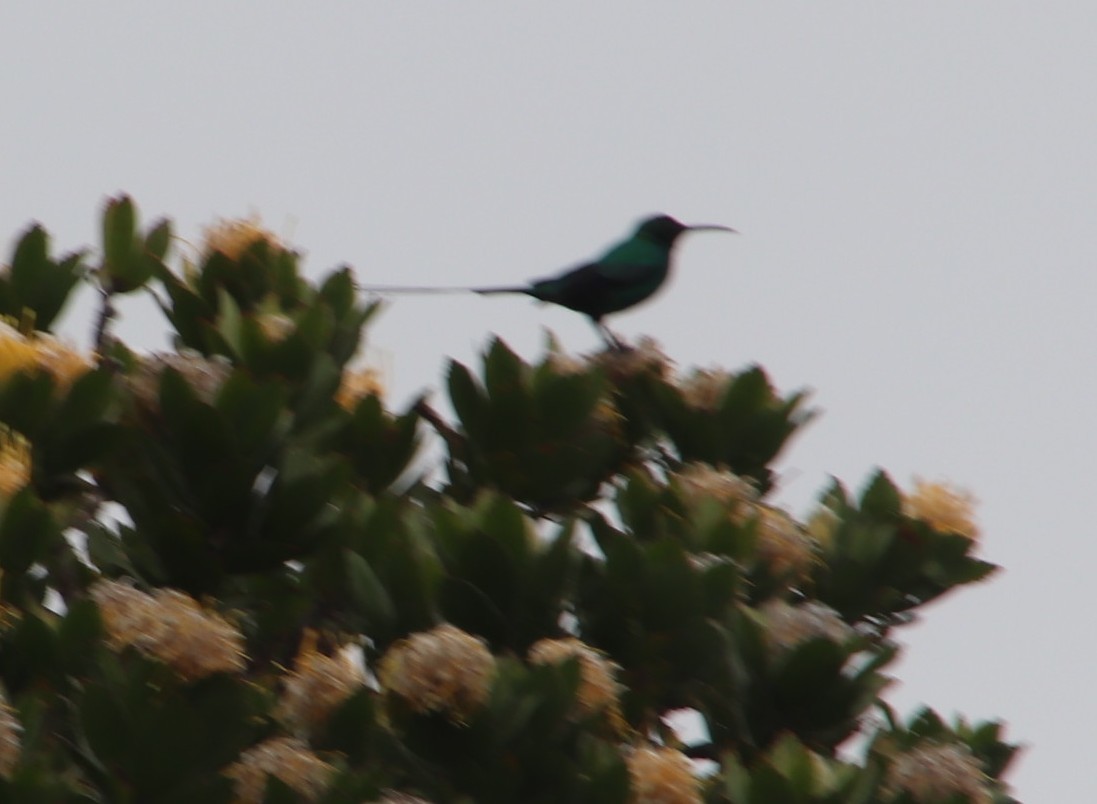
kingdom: Animalia
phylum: Chordata
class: Aves
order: Passeriformes
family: Nectariniidae
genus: Nectarinia
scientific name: Nectarinia famosa
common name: Malachite sunbird
